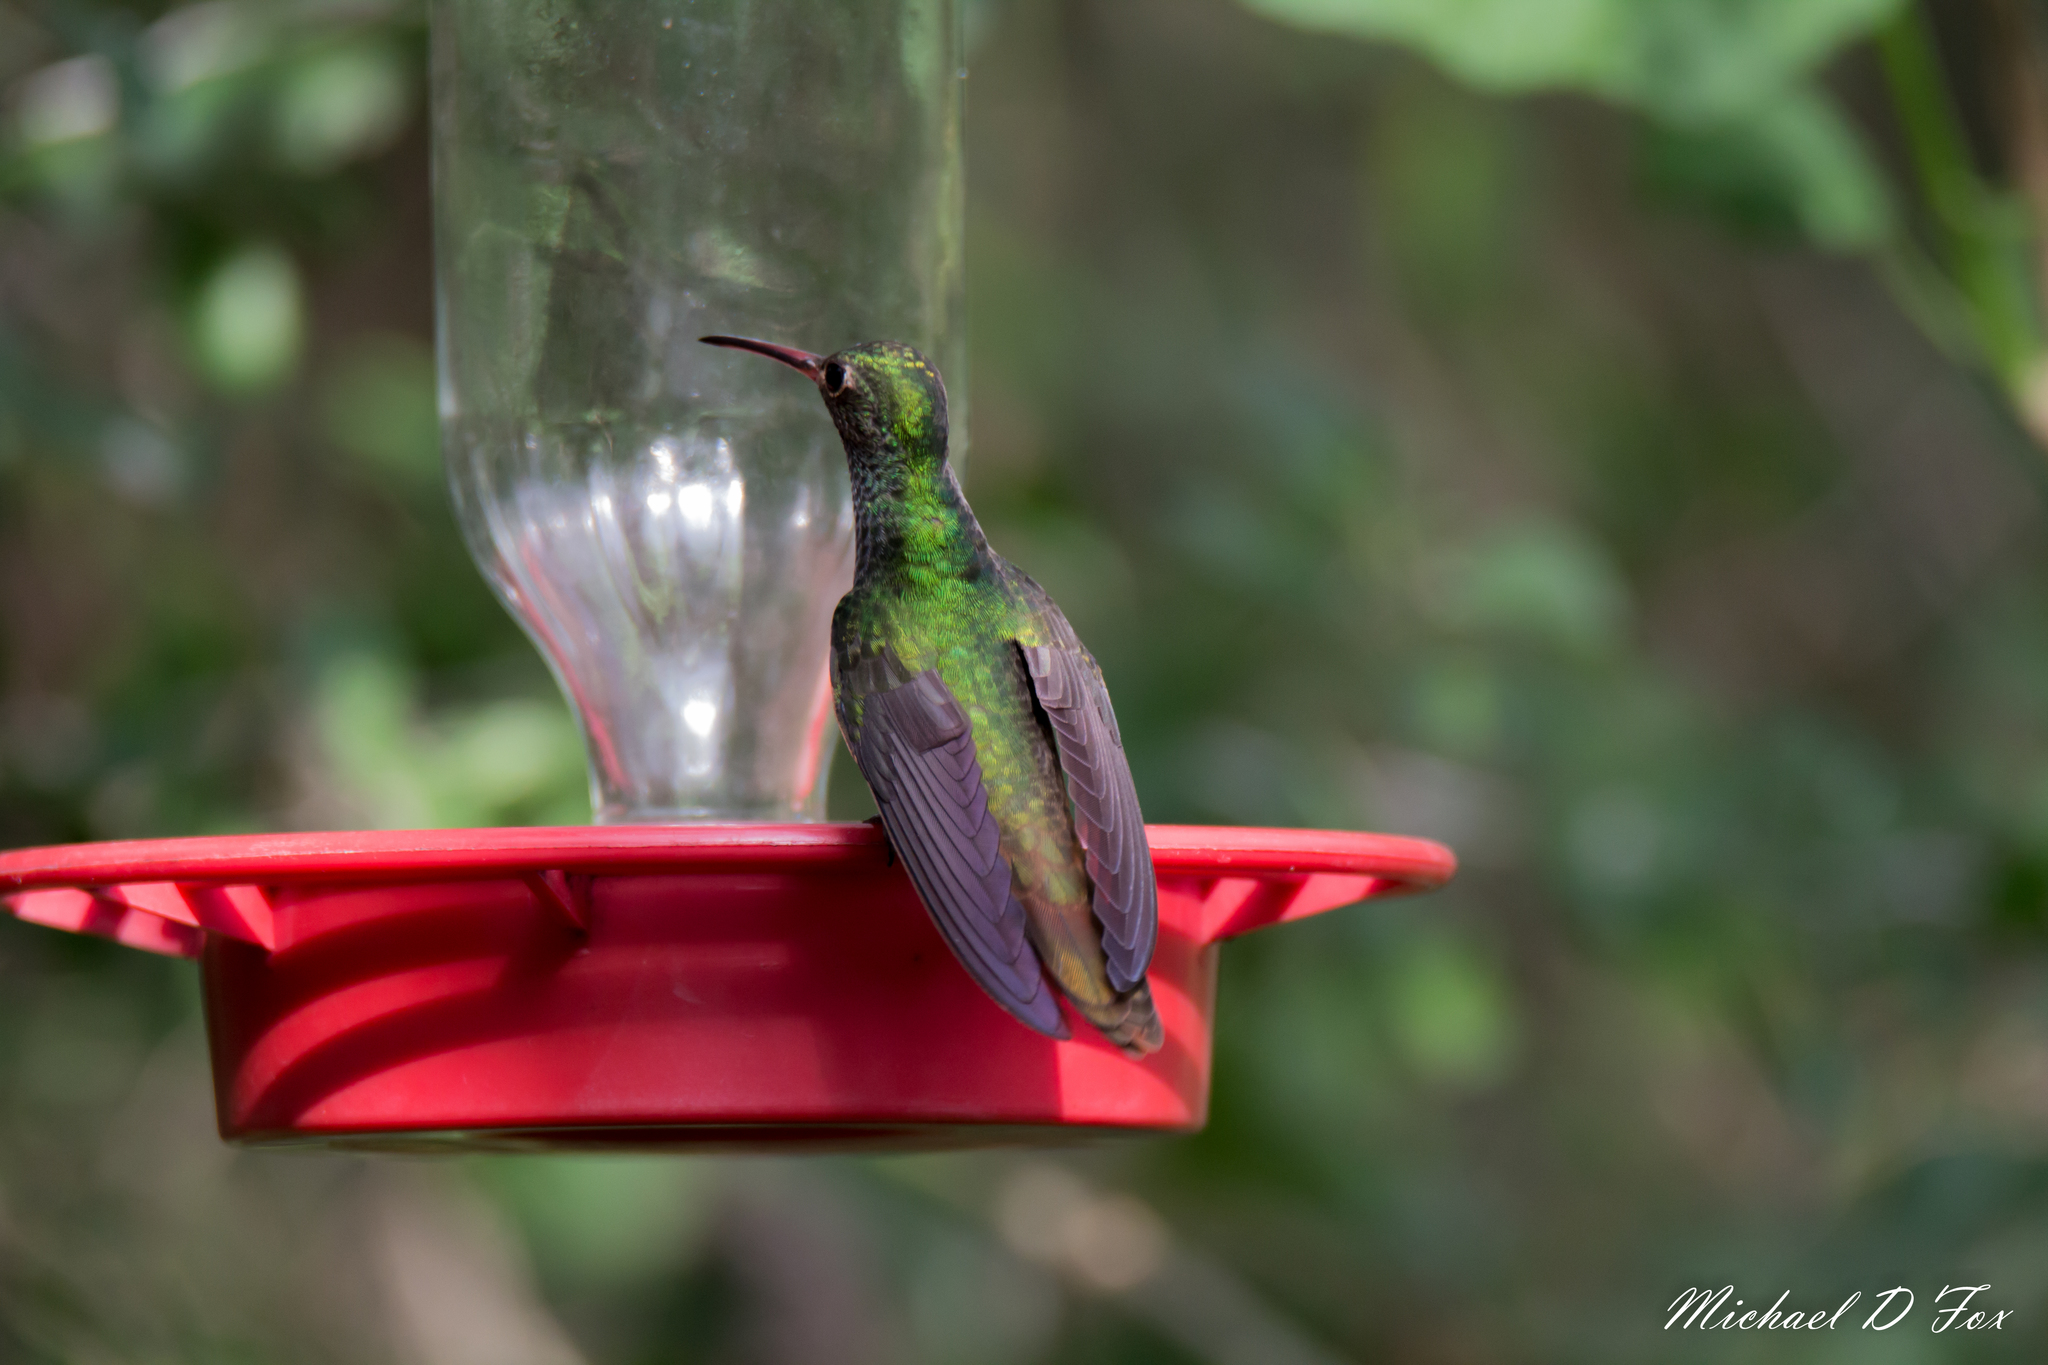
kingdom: Animalia
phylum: Chordata
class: Aves
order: Apodiformes
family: Trochilidae
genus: Amazilia
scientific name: Amazilia yucatanensis
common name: Buff-bellied hummingbird
